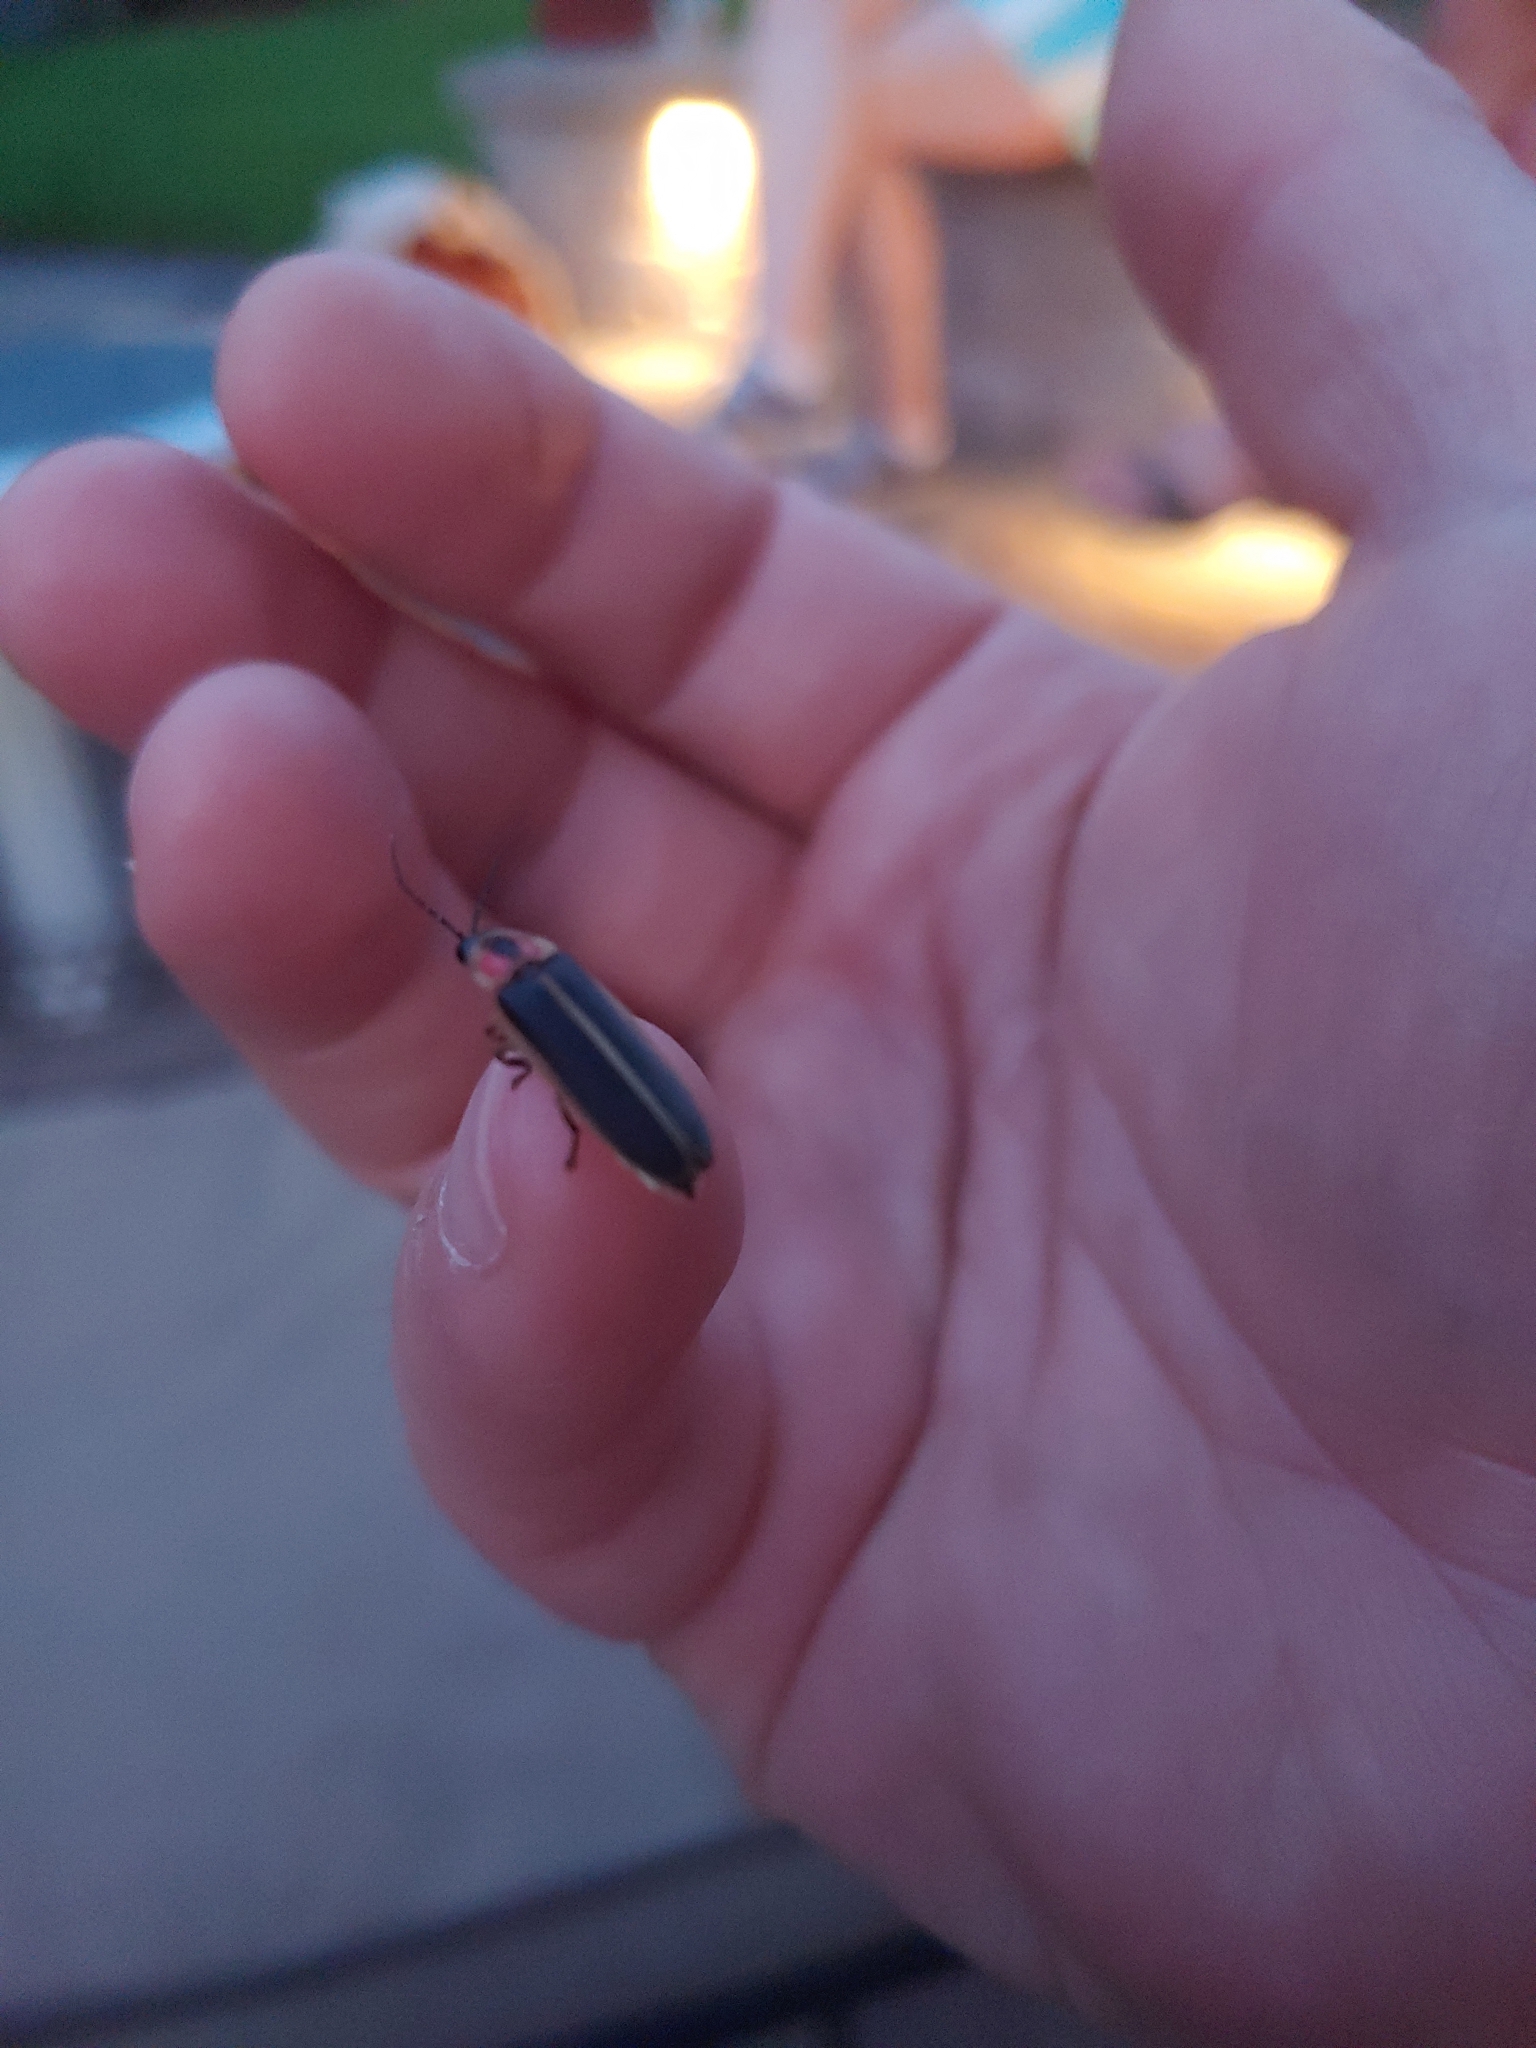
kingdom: Animalia
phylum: Arthropoda
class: Insecta
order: Coleoptera
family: Lampyridae
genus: Photinus
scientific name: Photinus pyralis
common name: Big dipper firefly
